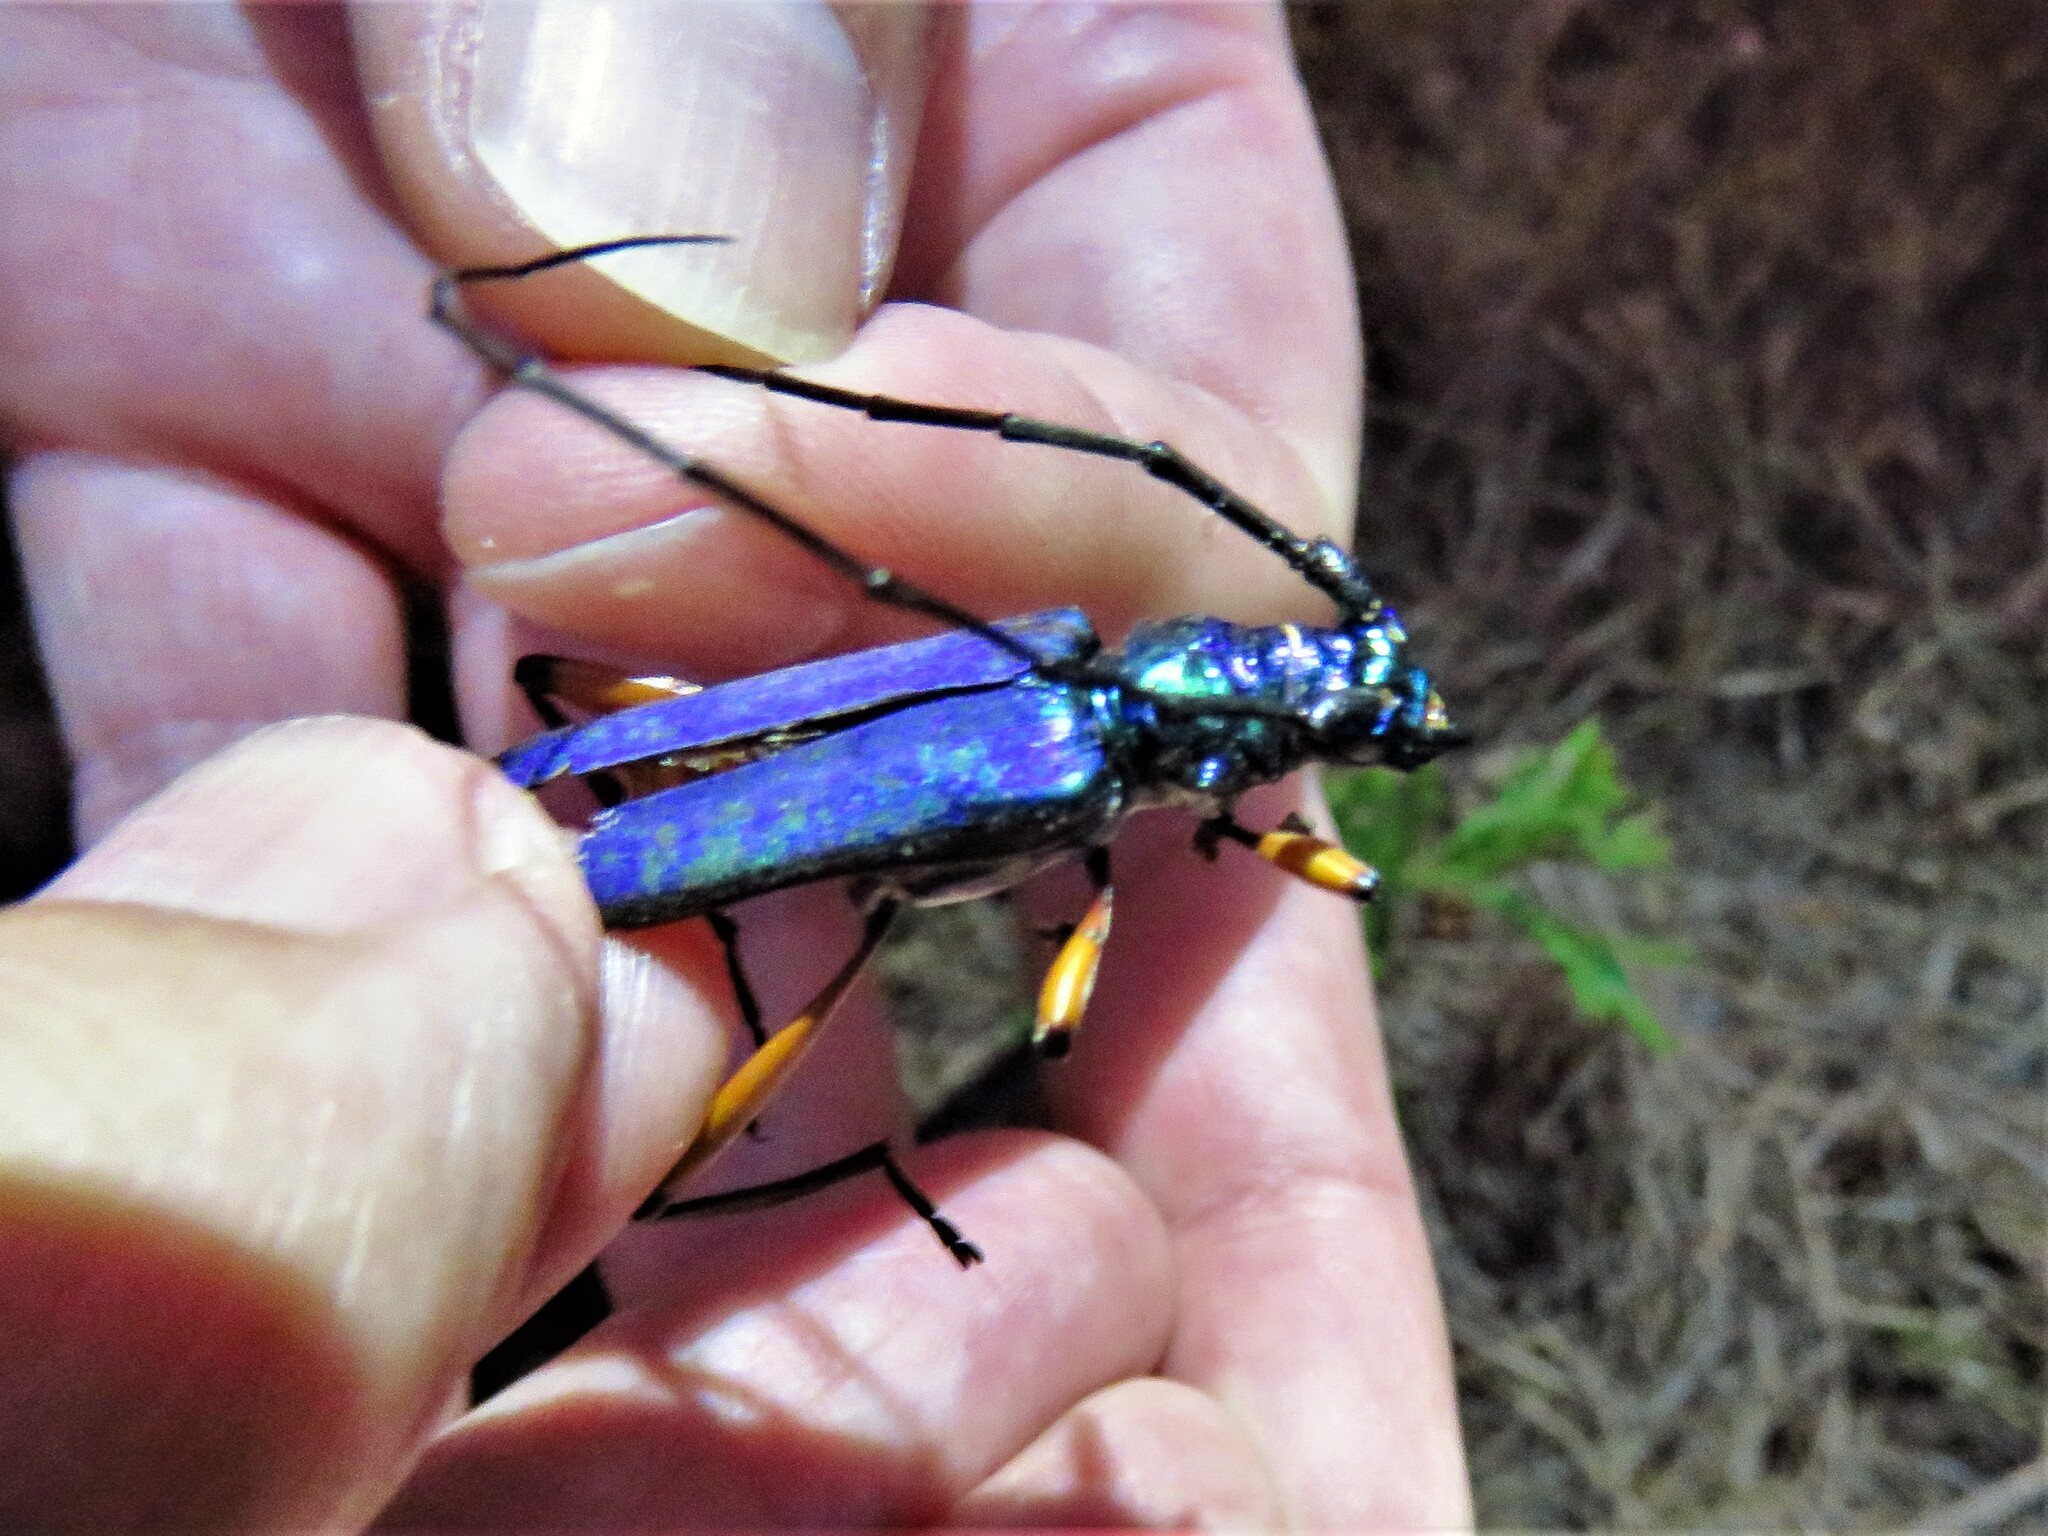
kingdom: Animalia
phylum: Arthropoda
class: Insecta
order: Coleoptera
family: Cerambycidae
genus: Plinthocoelium
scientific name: Plinthocoelium suaveolens
